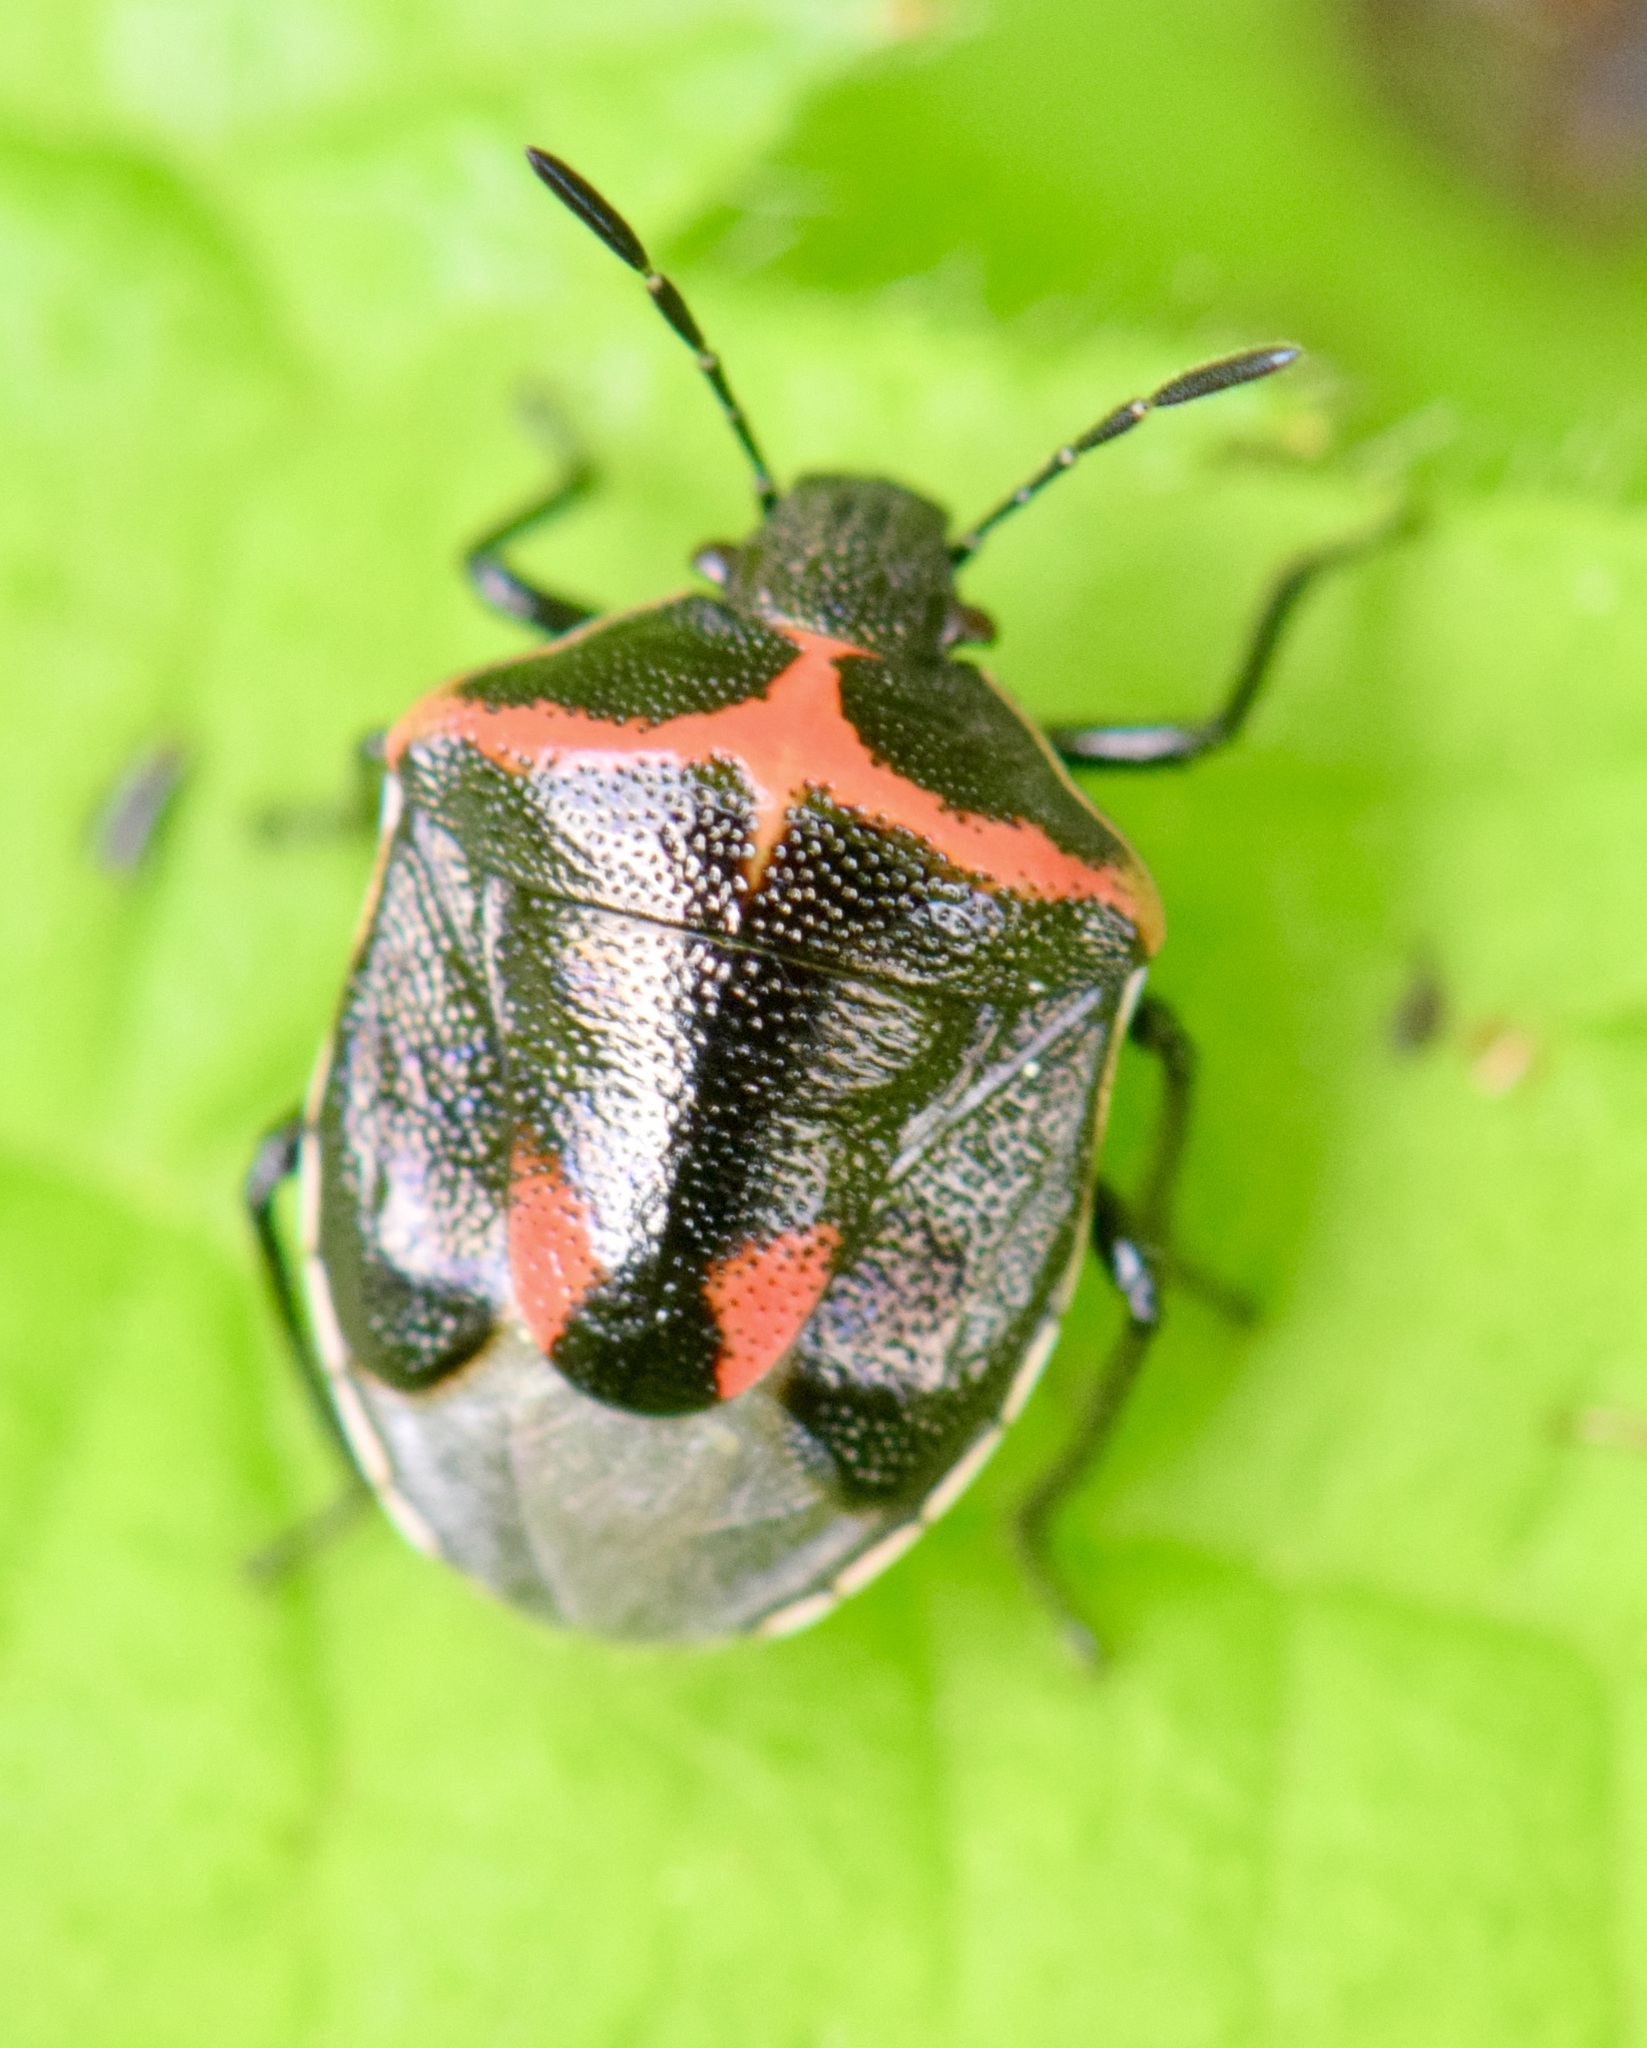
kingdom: Animalia
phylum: Arthropoda
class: Insecta
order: Hemiptera
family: Pentatomidae
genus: Cosmopepla
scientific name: Cosmopepla lintneriana
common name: Twice-stabbed stink bug
